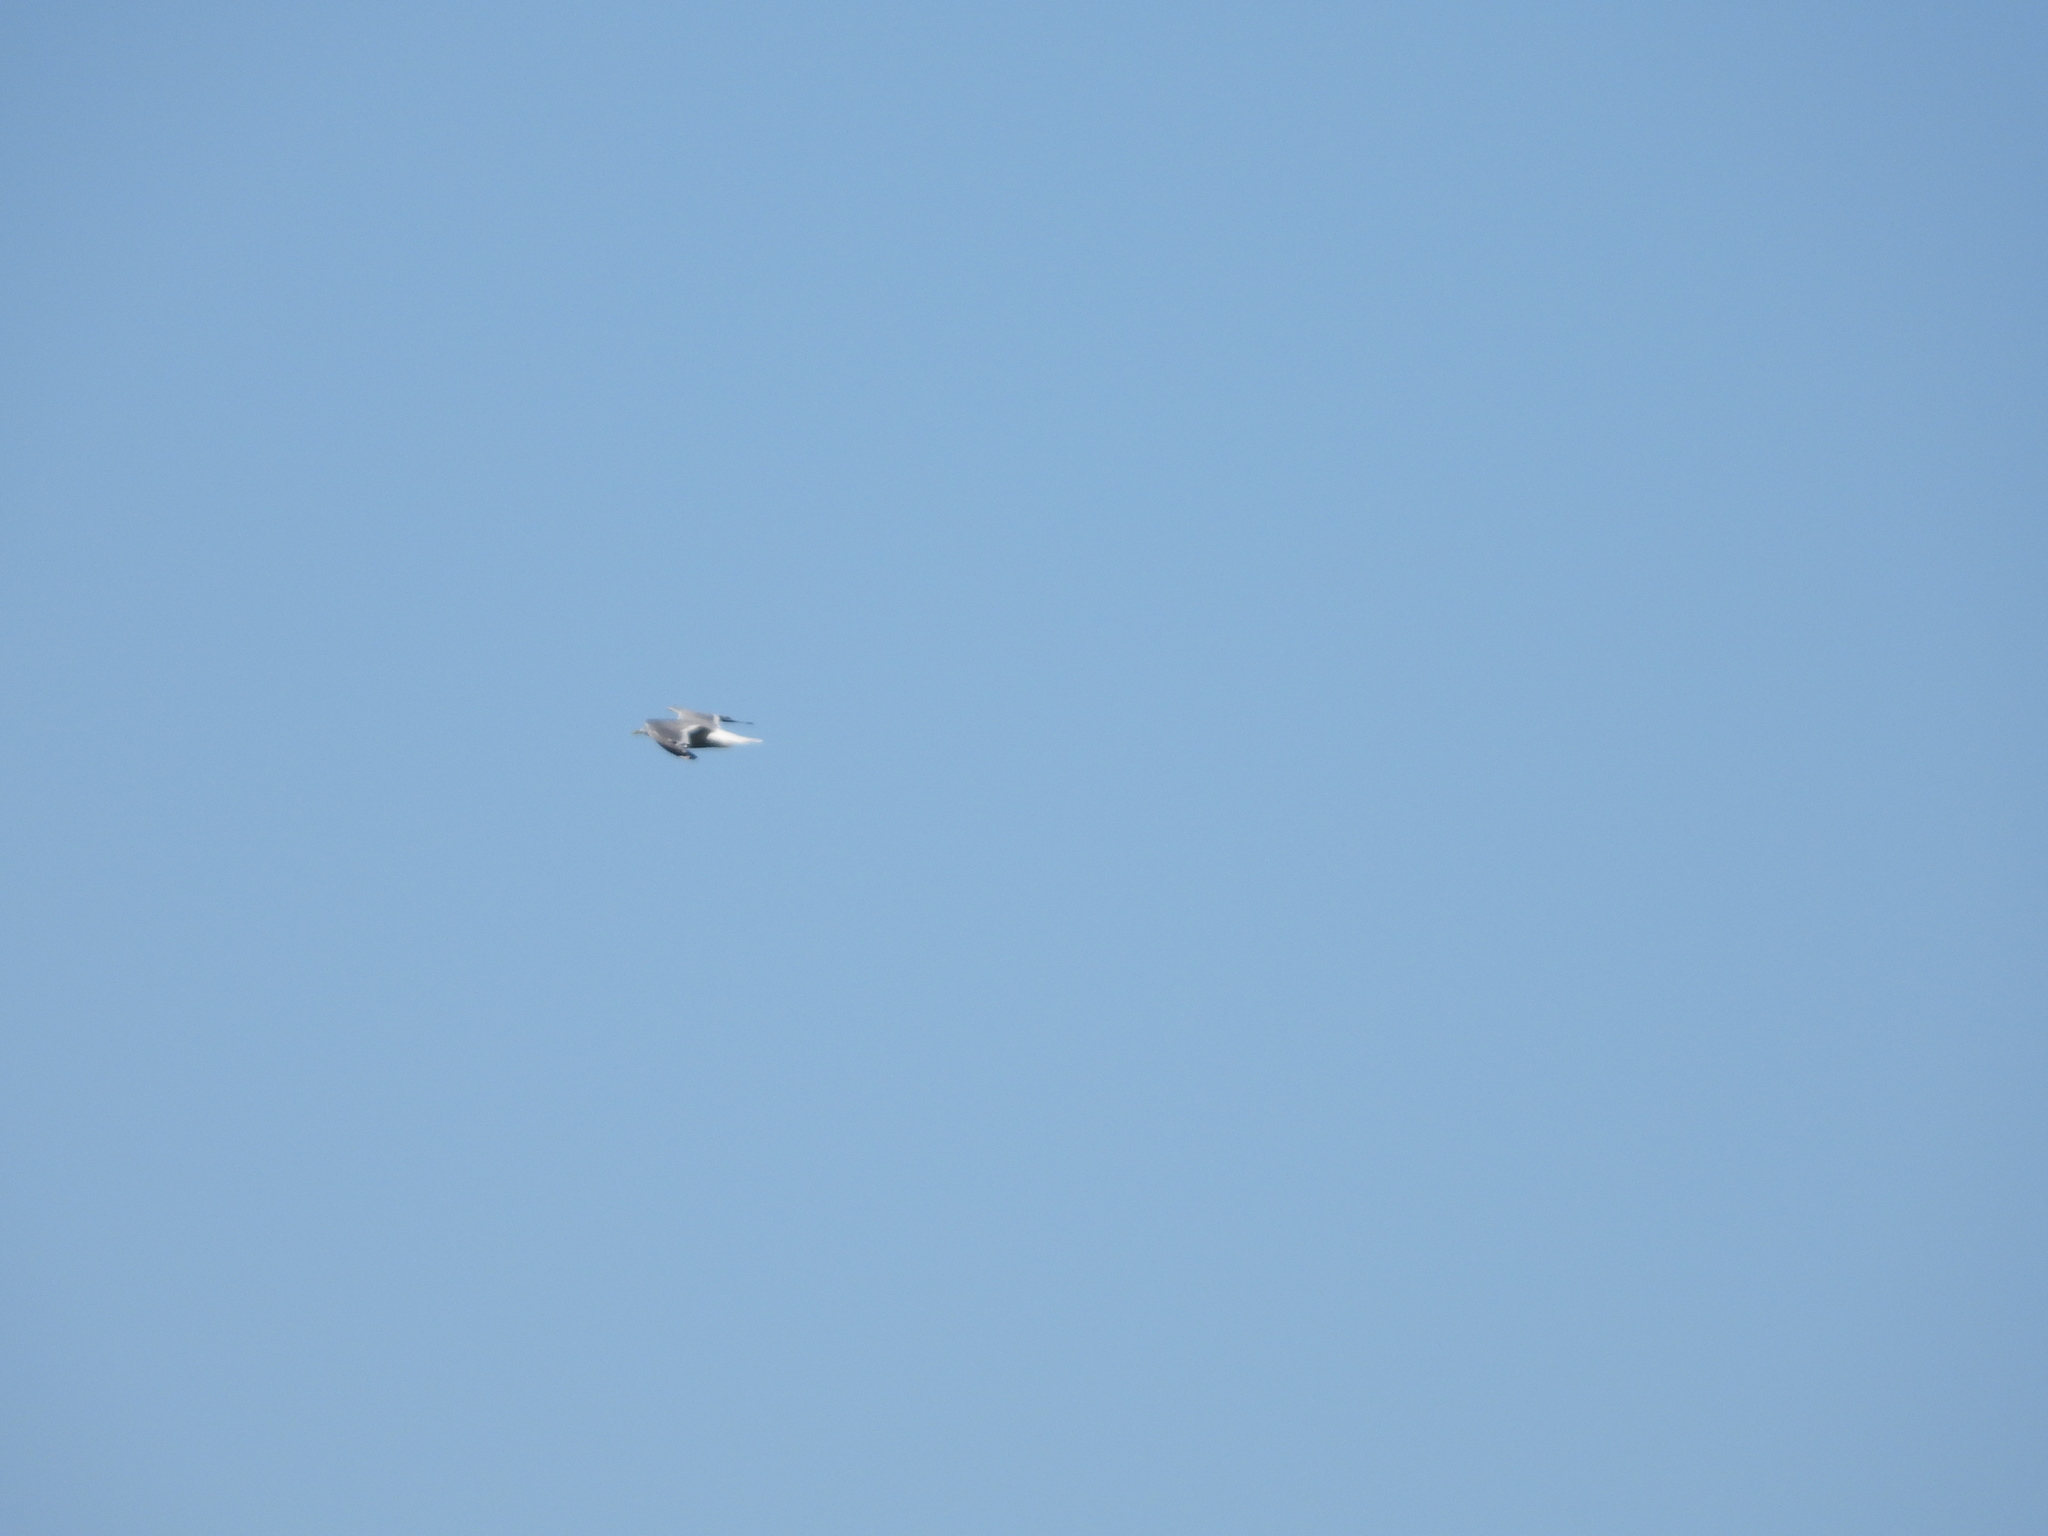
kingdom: Animalia
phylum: Chordata
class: Aves
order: Charadriiformes
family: Laridae
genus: Larus
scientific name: Larus
